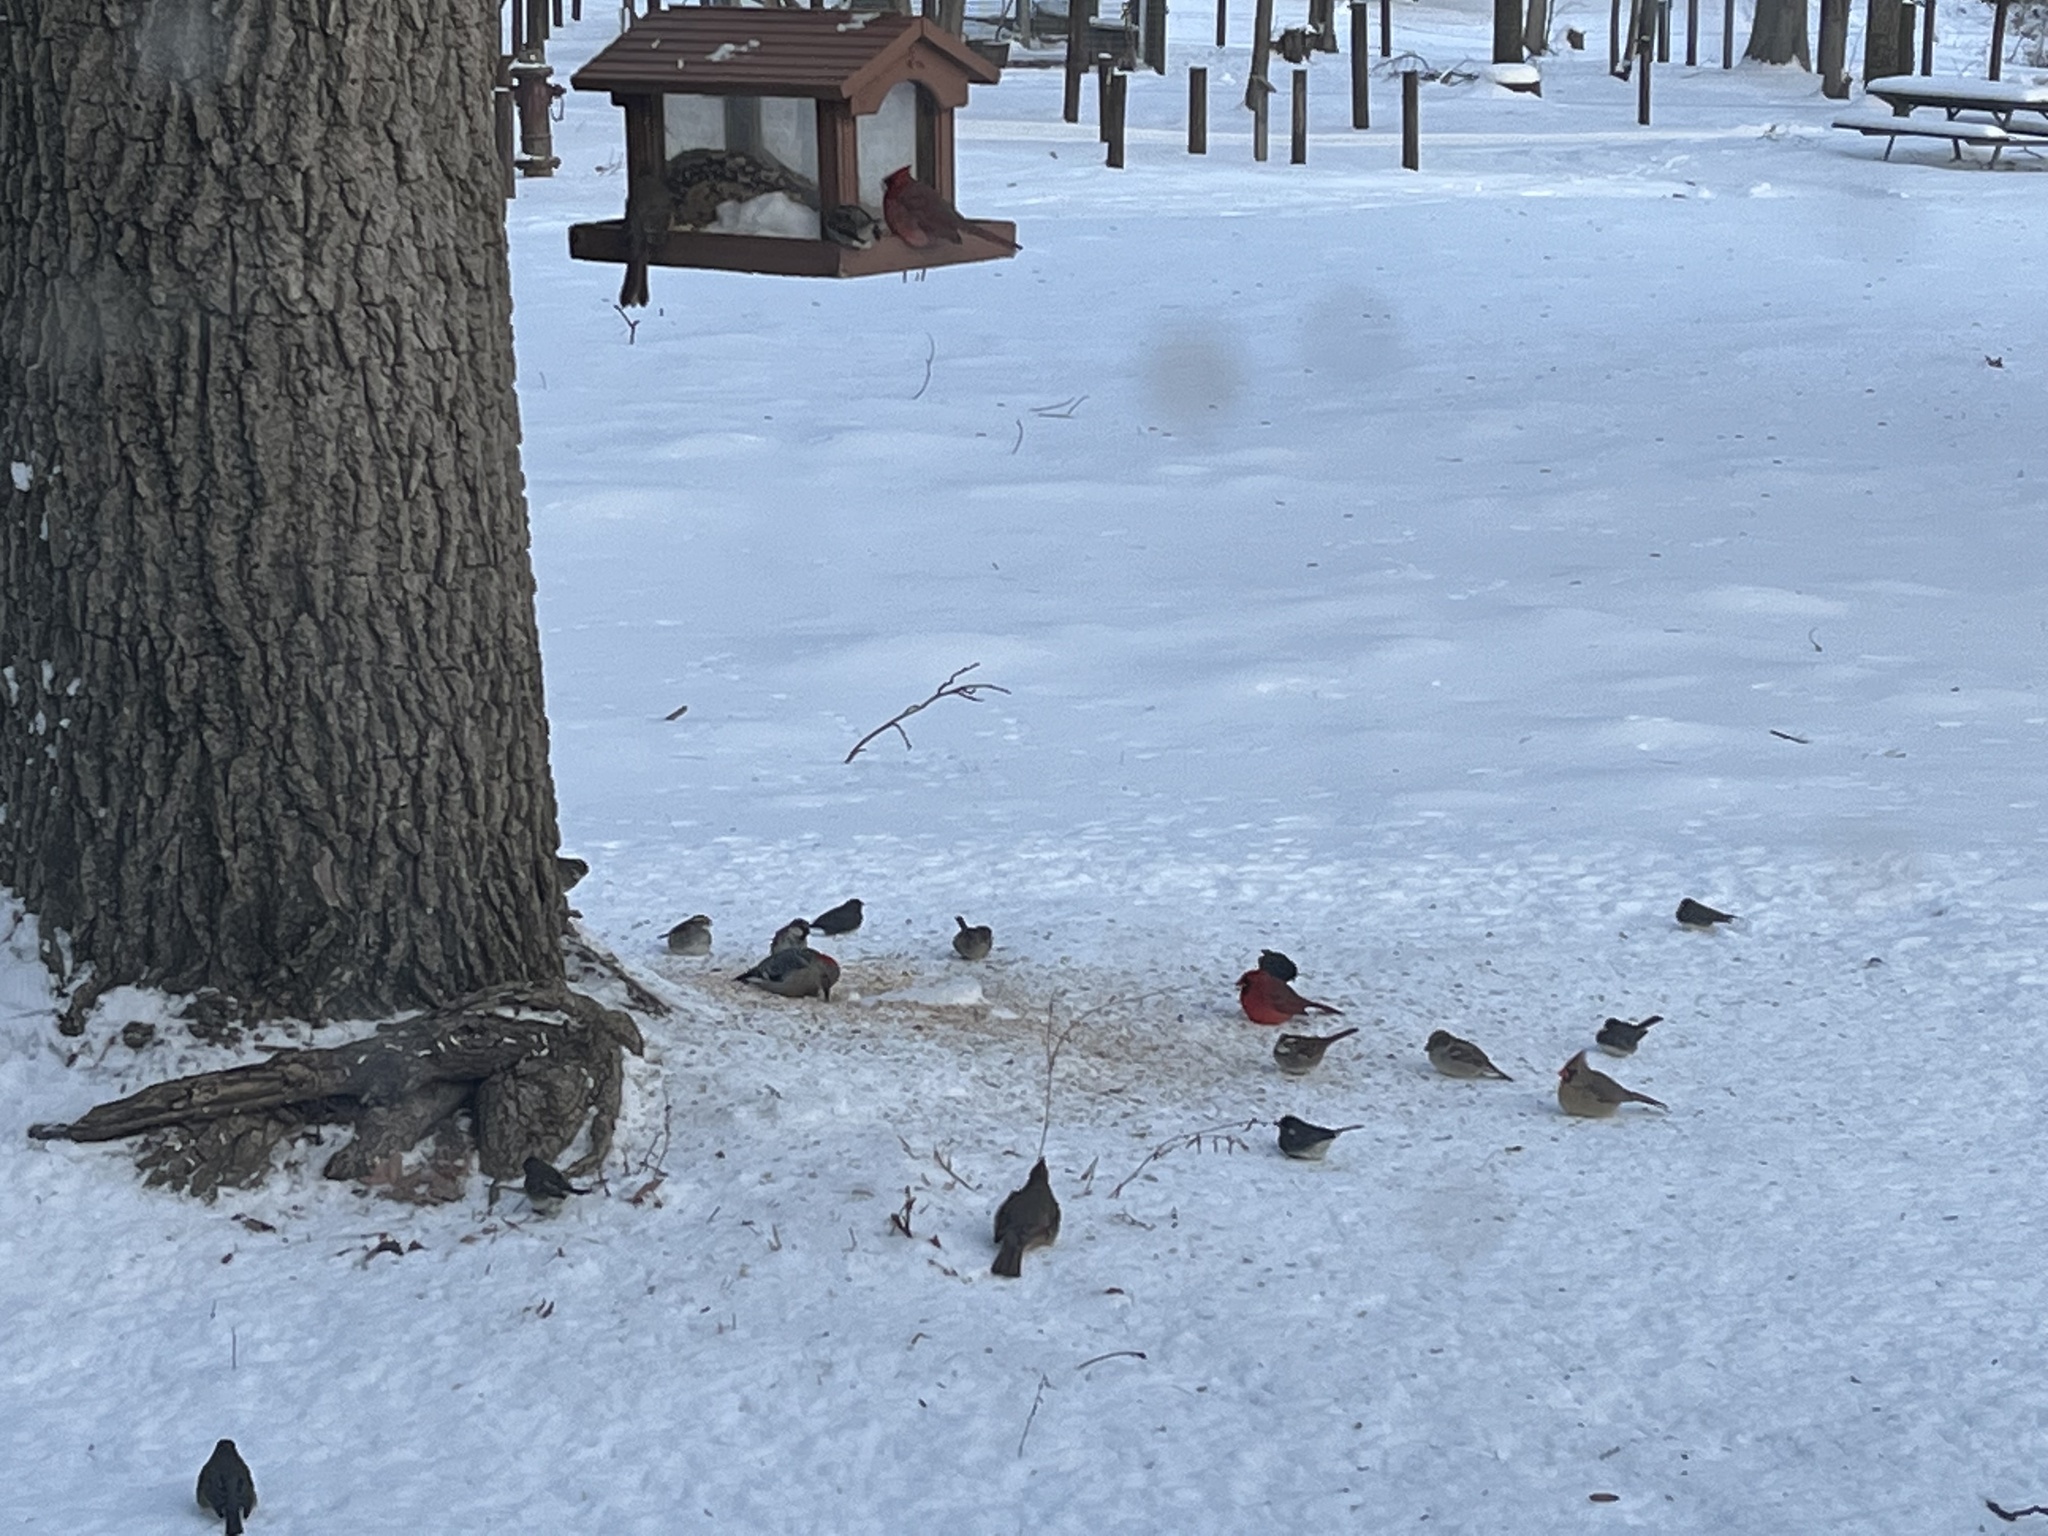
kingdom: Animalia
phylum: Chordata
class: Aves
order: Passeriformes
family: Cardinalidae
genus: Cardinalis
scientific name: Cardinalis cardinalis
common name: Northern cardinal
